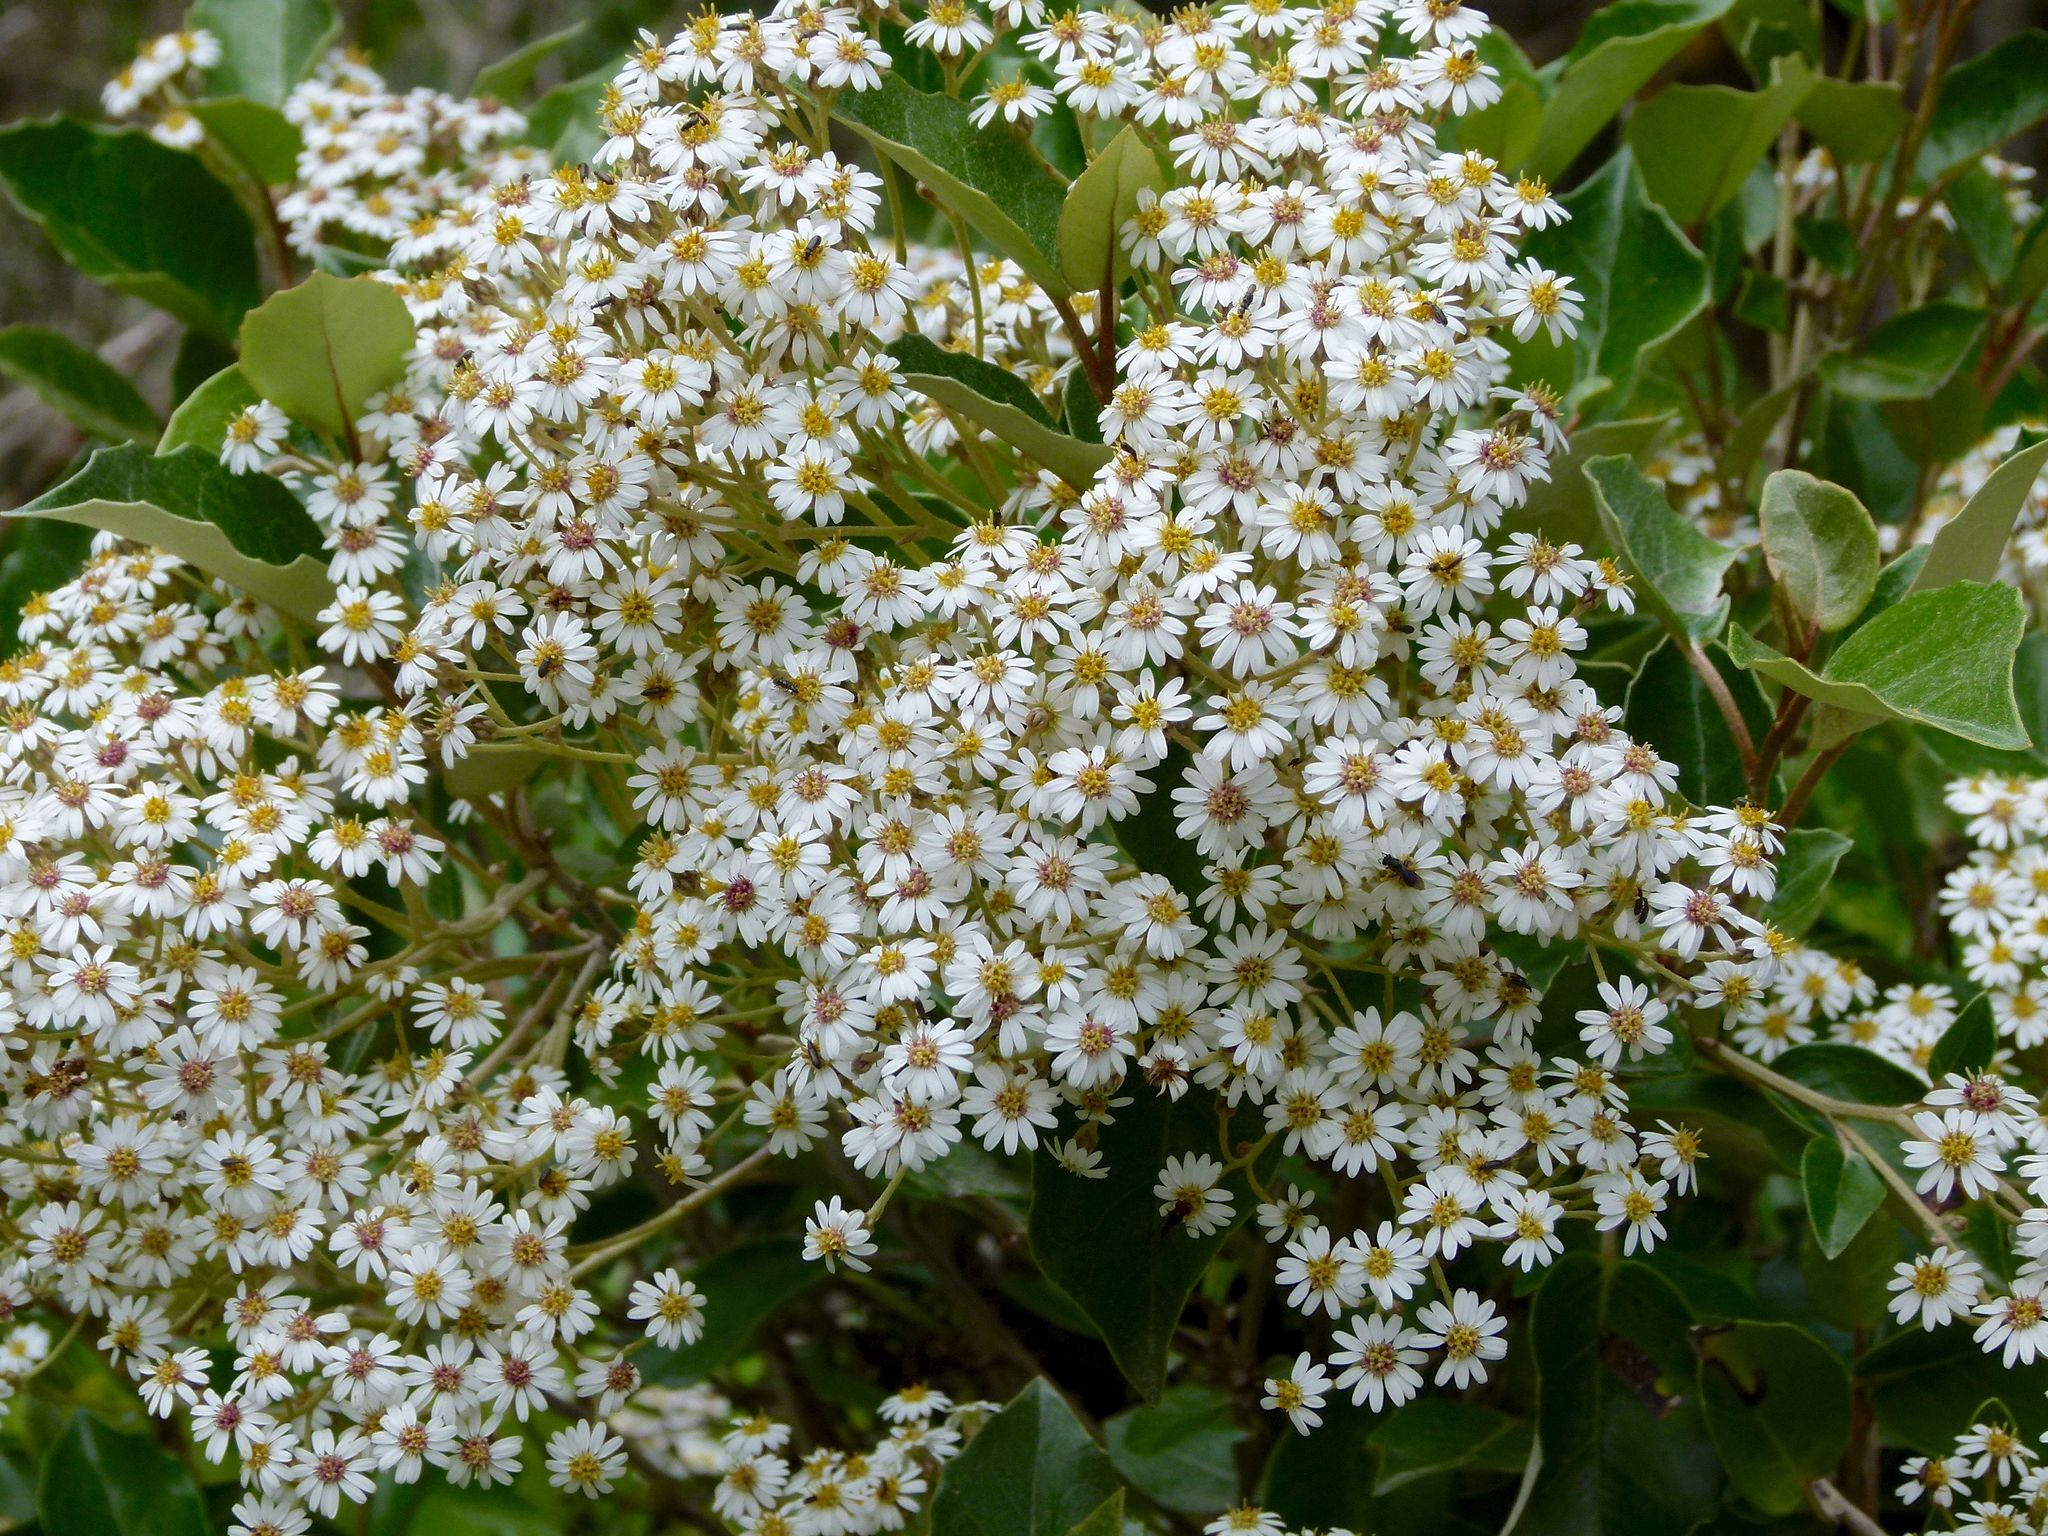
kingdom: Plantae
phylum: Tracheophyta
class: Magnoliopsida
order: Asterales
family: Asteraceae
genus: Olearia
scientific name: Olearia arborescens
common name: Glossy tree daisy
